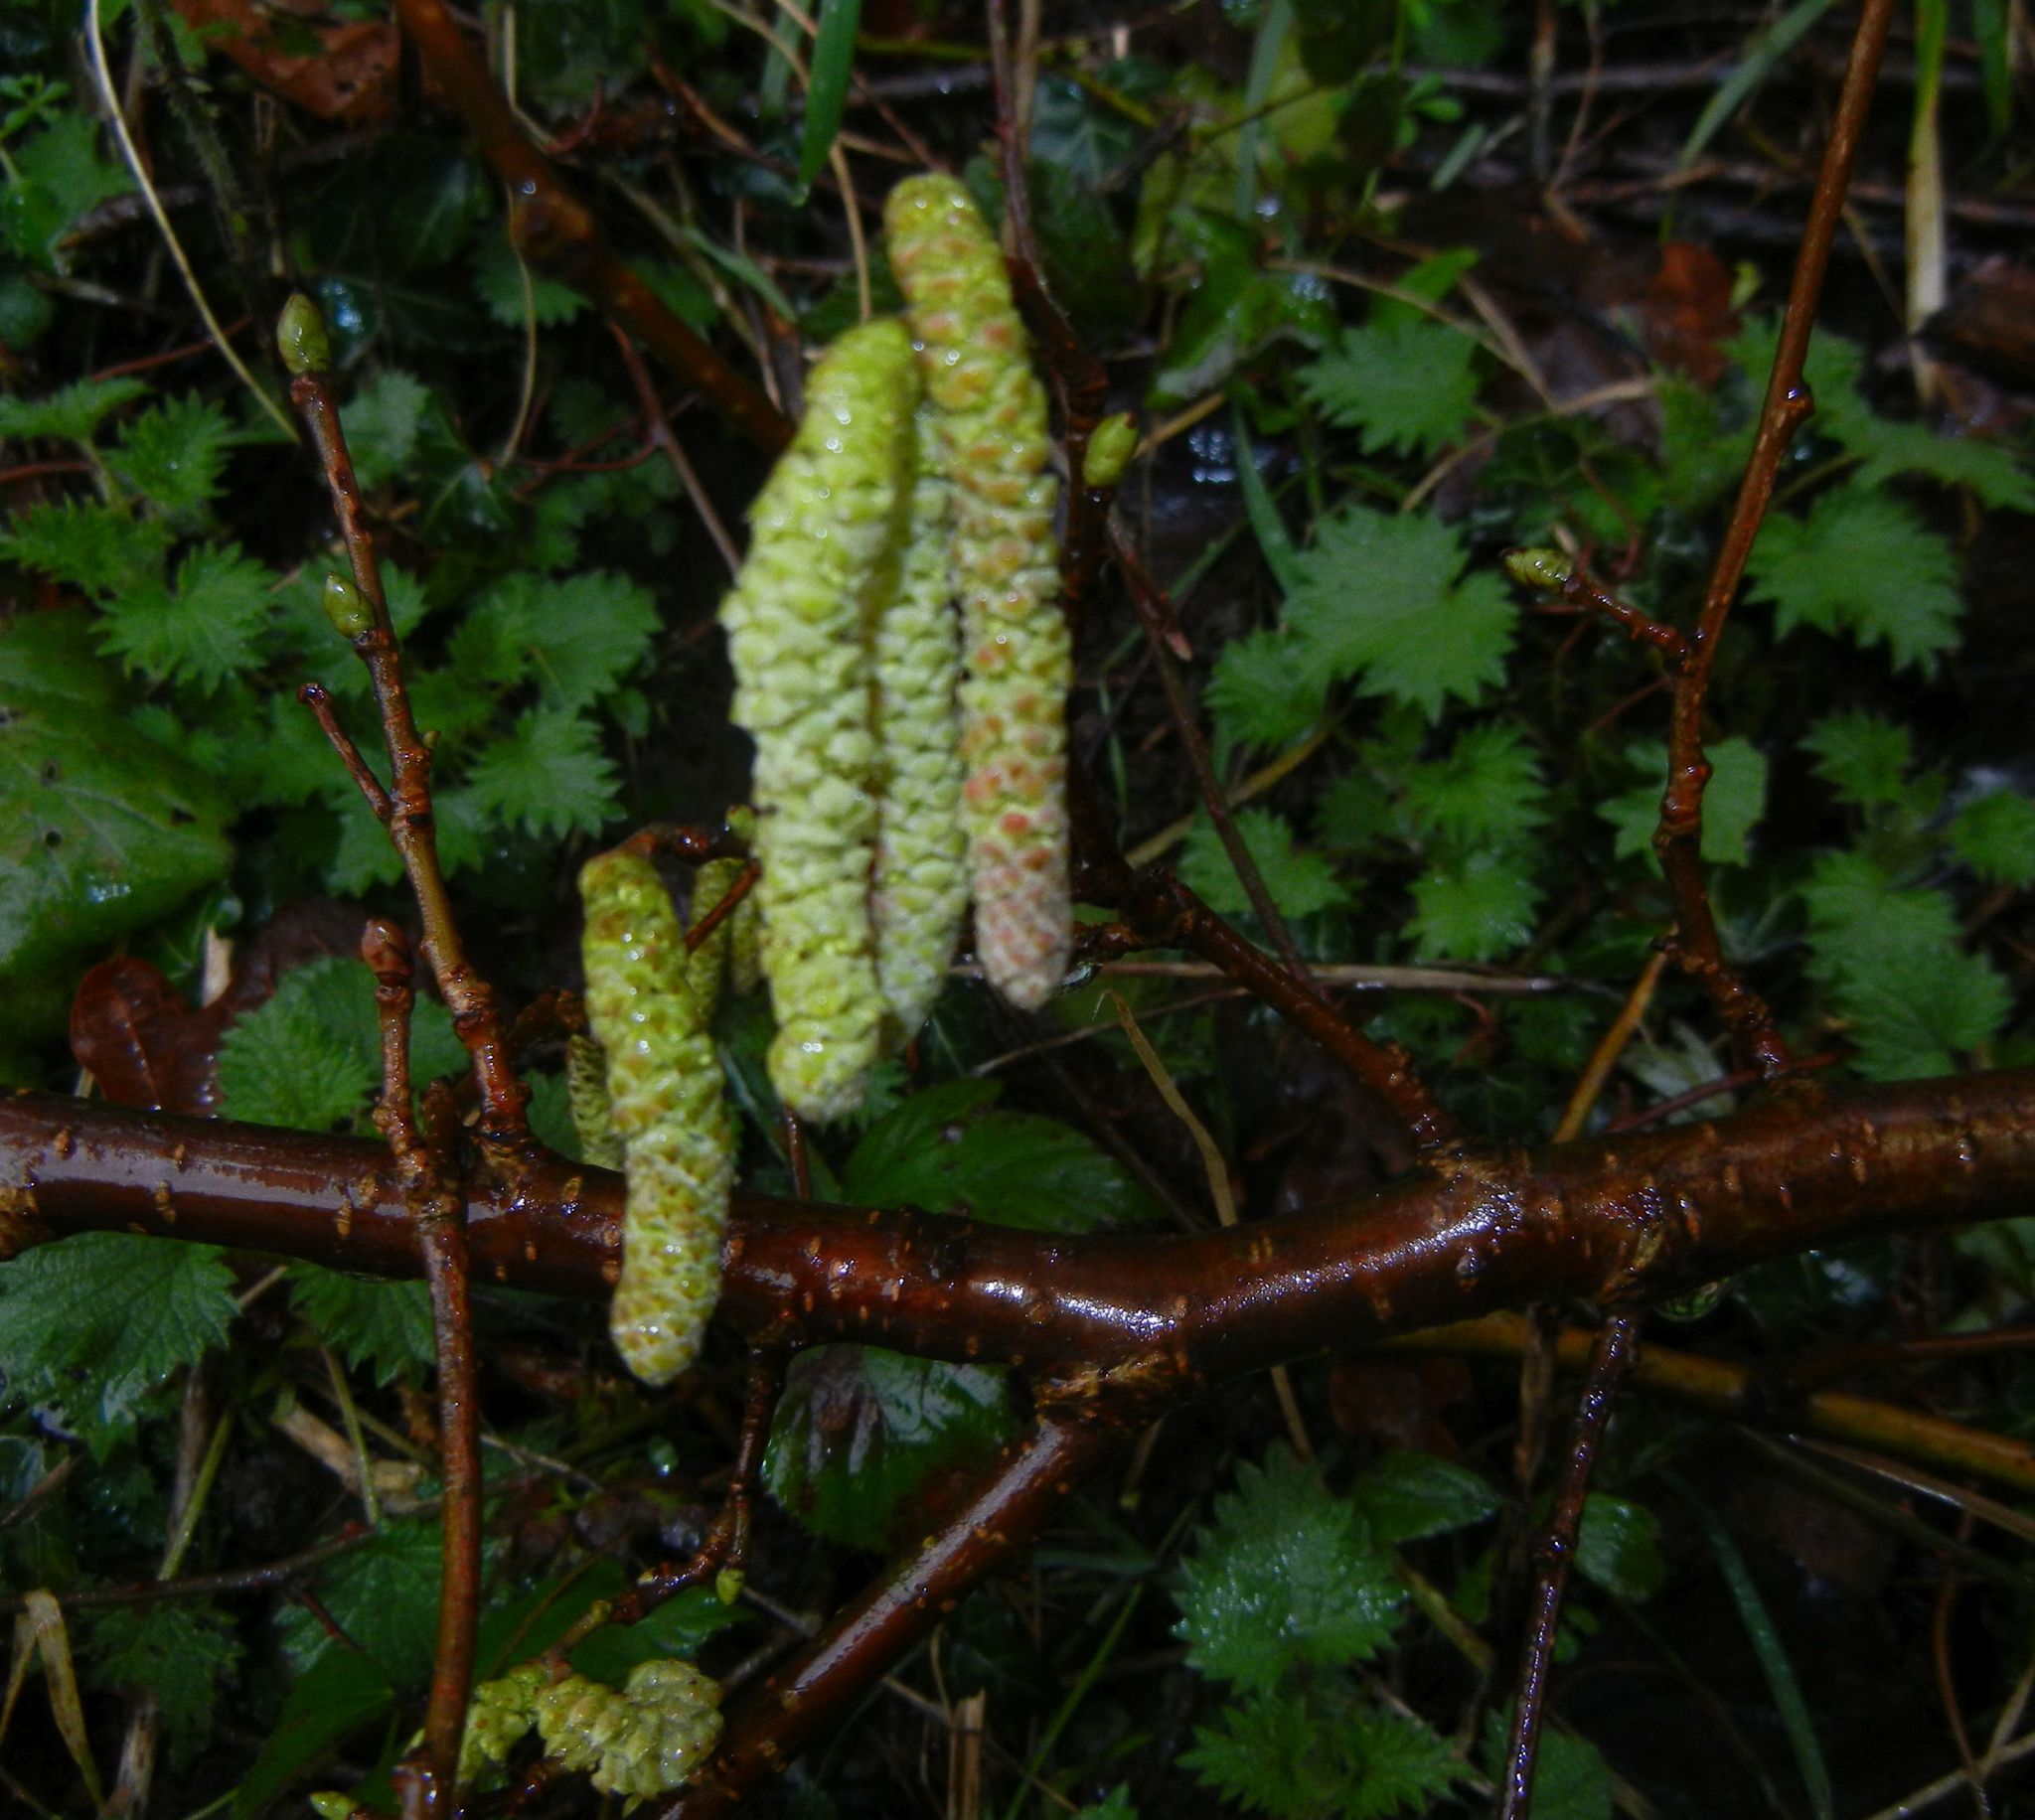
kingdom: Plantae
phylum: Tracheophyta
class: Magnoliopsida
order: Fagales
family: Betulaceae
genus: Corylus
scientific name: Corylus avellana
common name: European hazel
